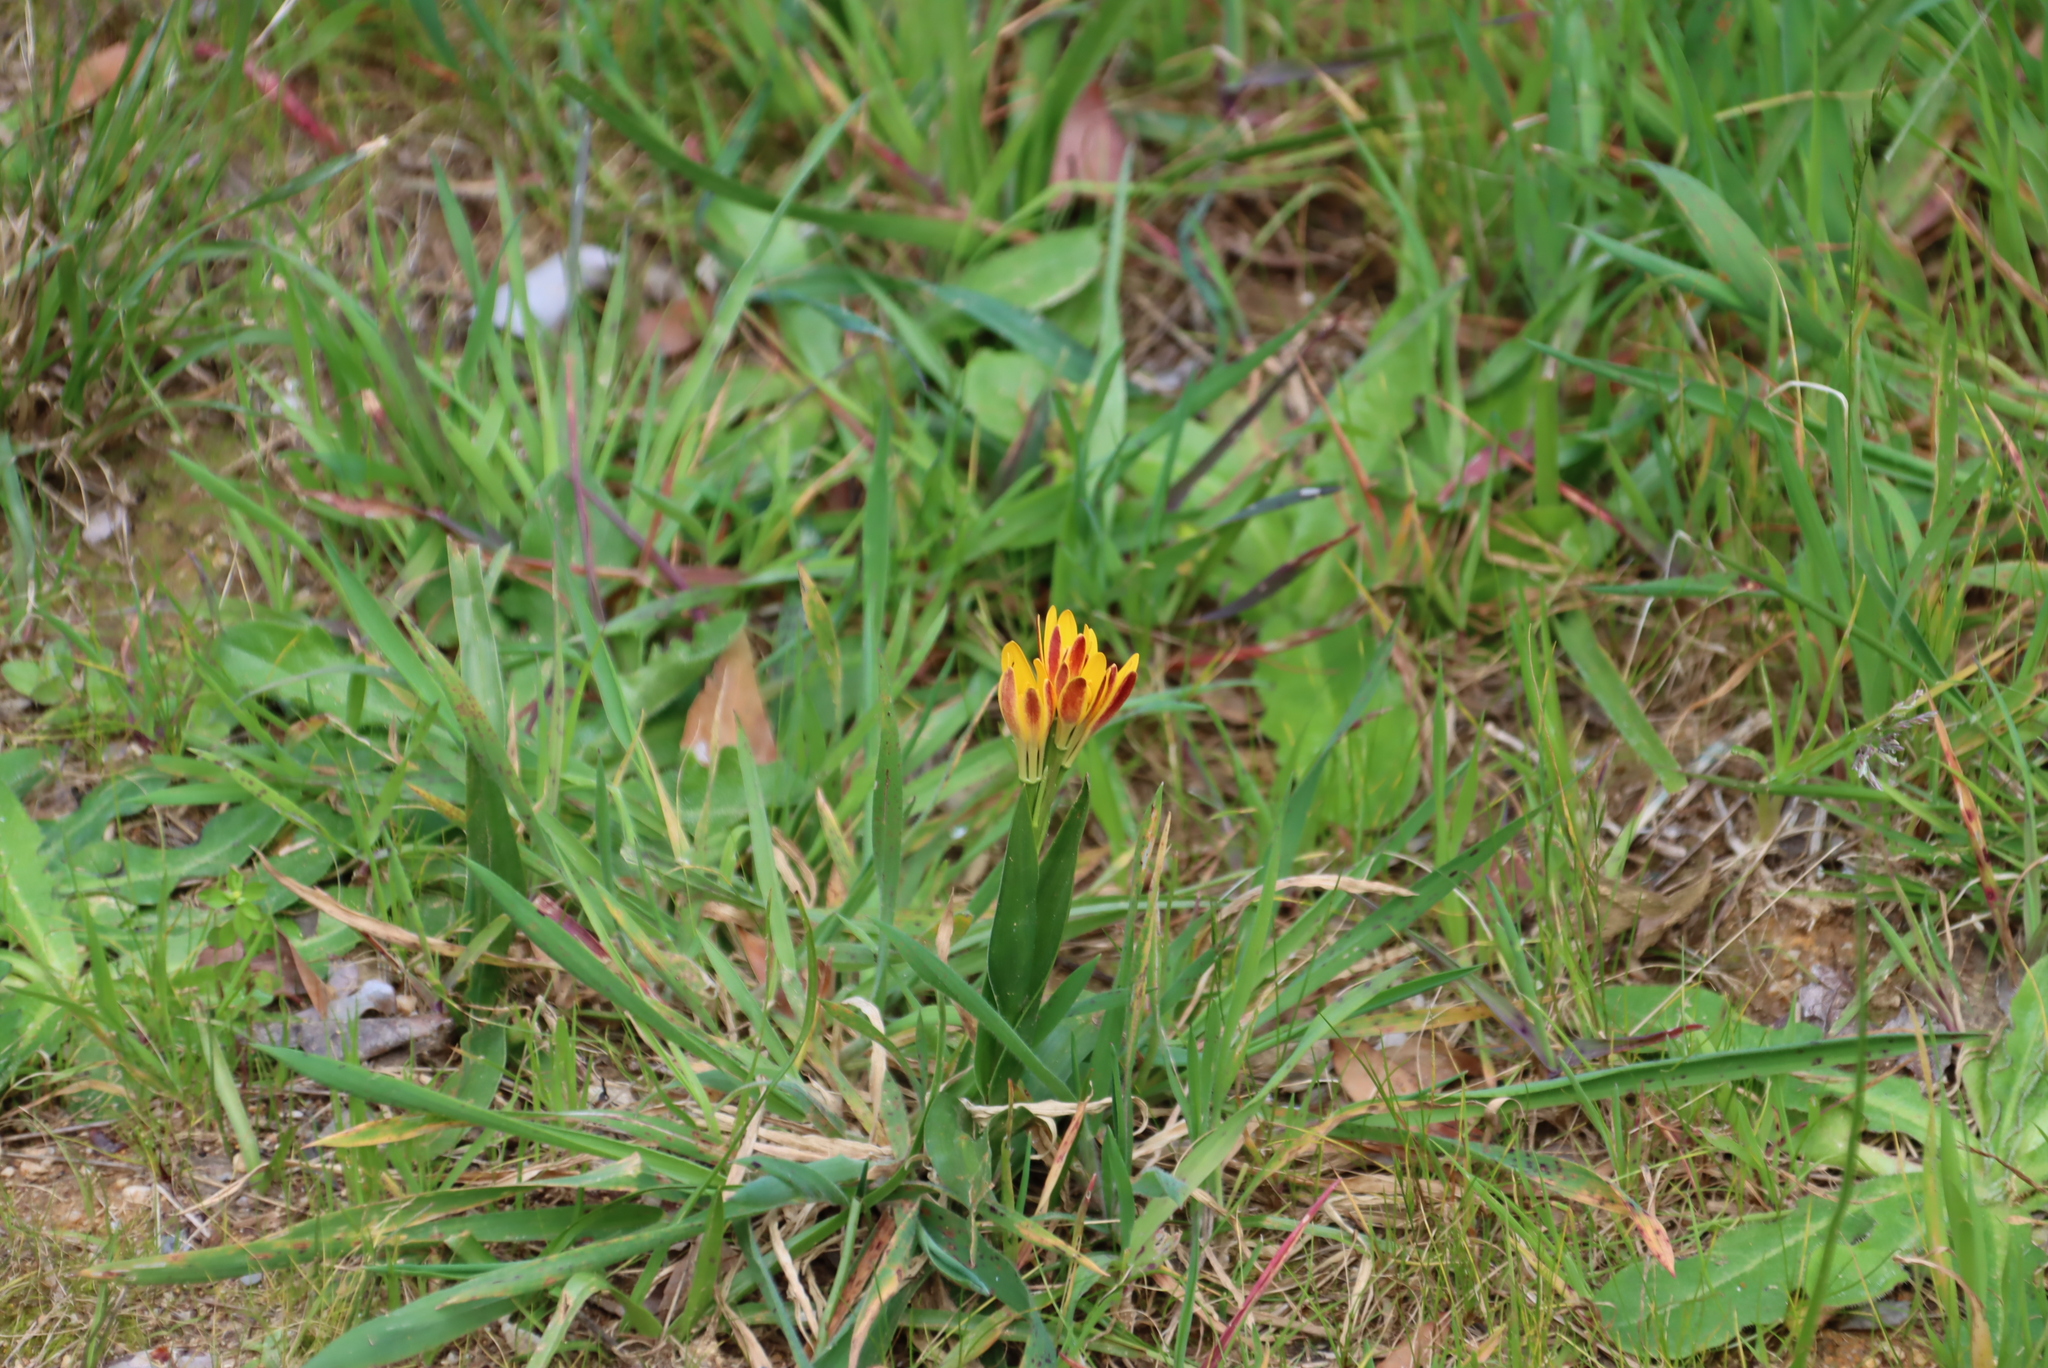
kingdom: Plantae
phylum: Tracheophyta
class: Liliopsida
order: Liliales
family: Colchicaceae
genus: Baeometra
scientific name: Baeometra uniflora
